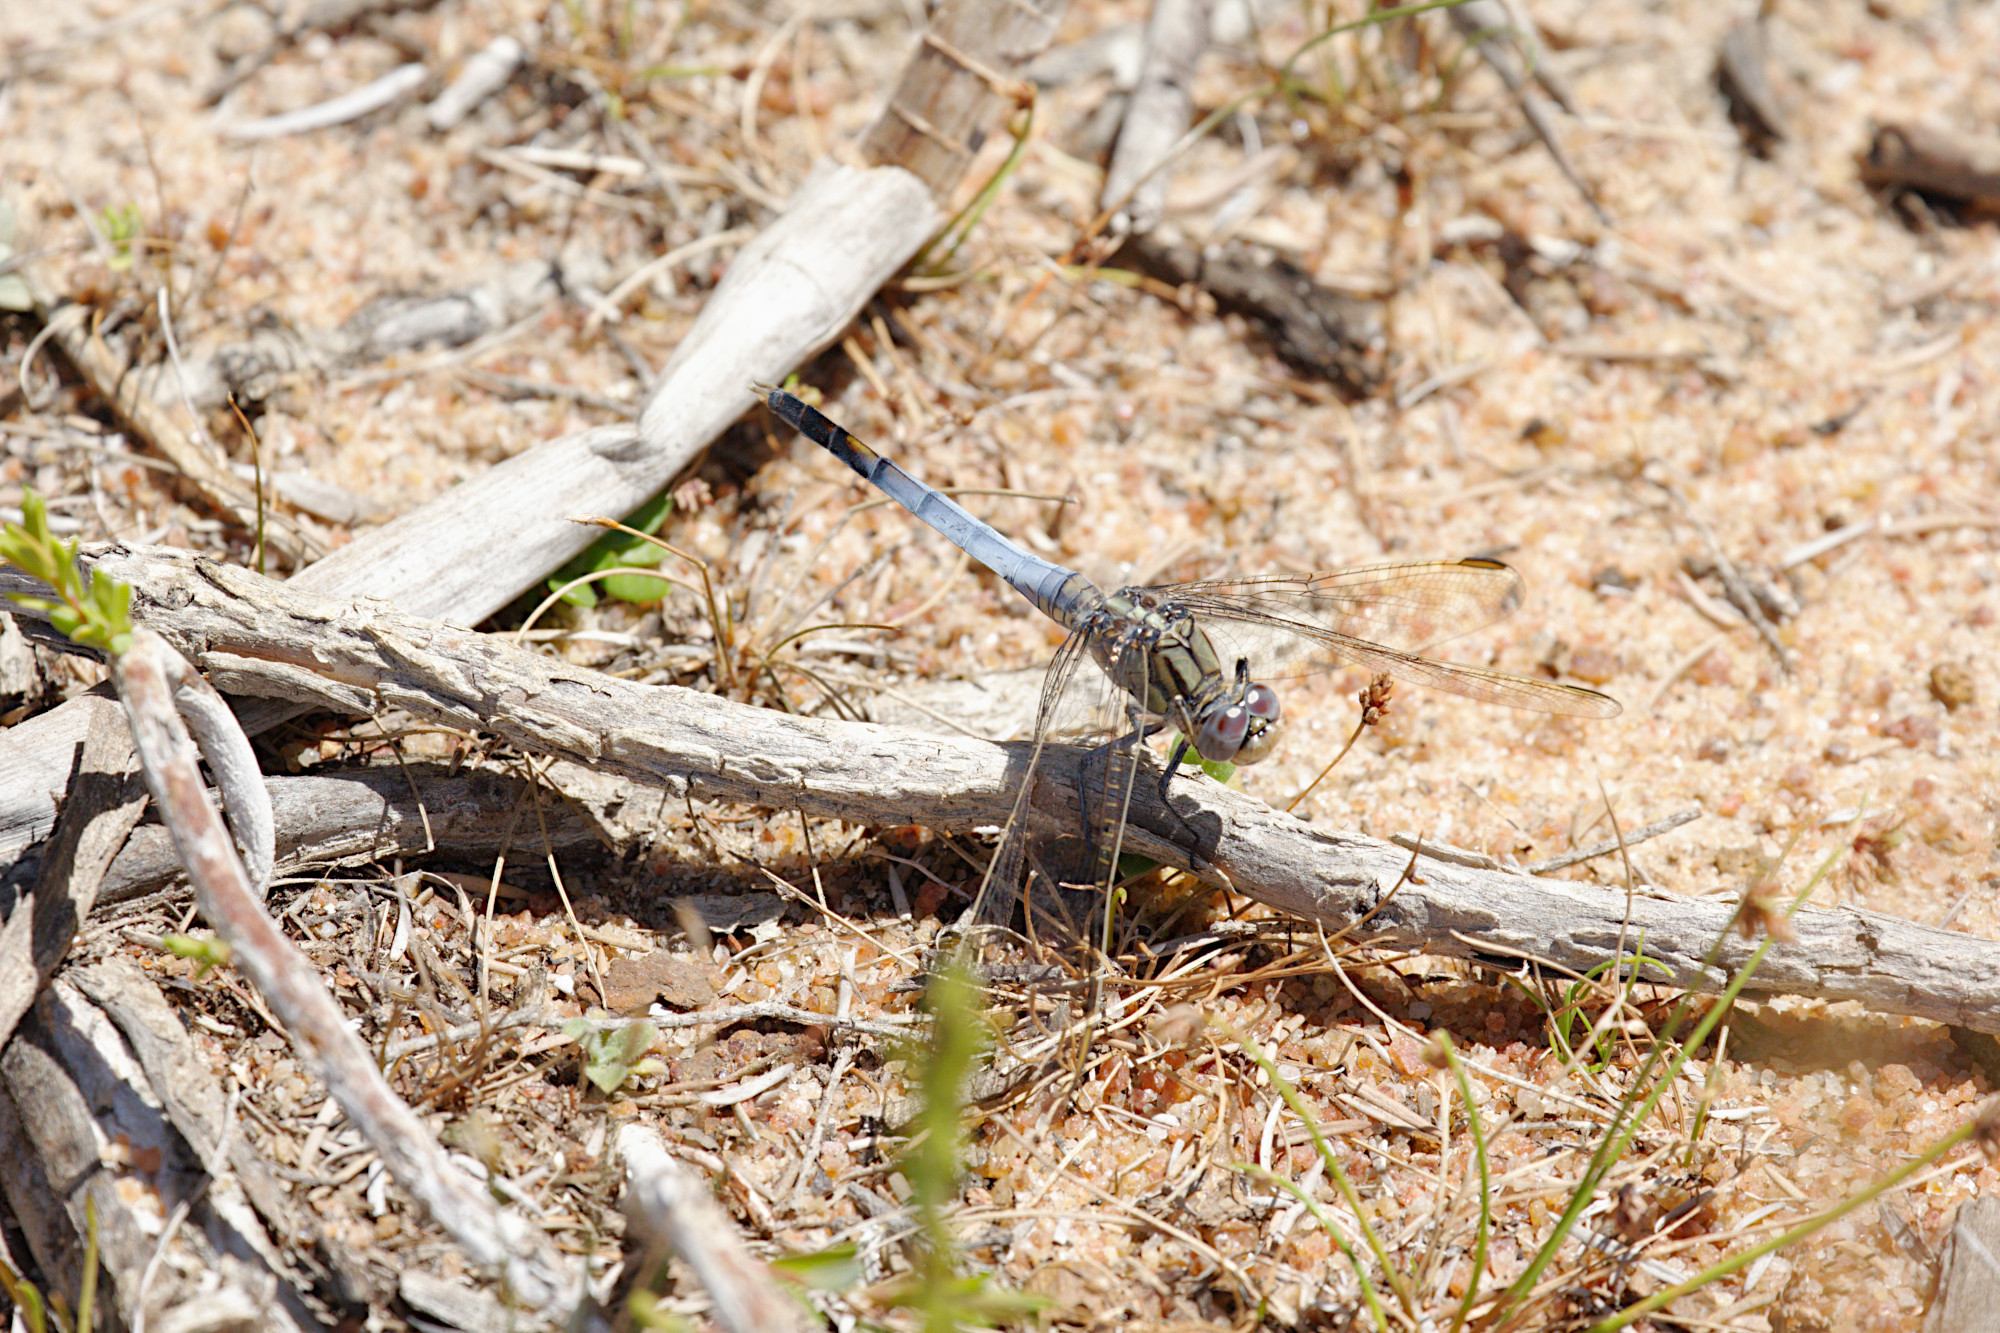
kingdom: Animalia
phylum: Arthropoda
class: Insecta
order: Odonata
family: Libellulidae
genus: Orthetrum
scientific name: Orthetrum caledonicum
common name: Blue skimmer
